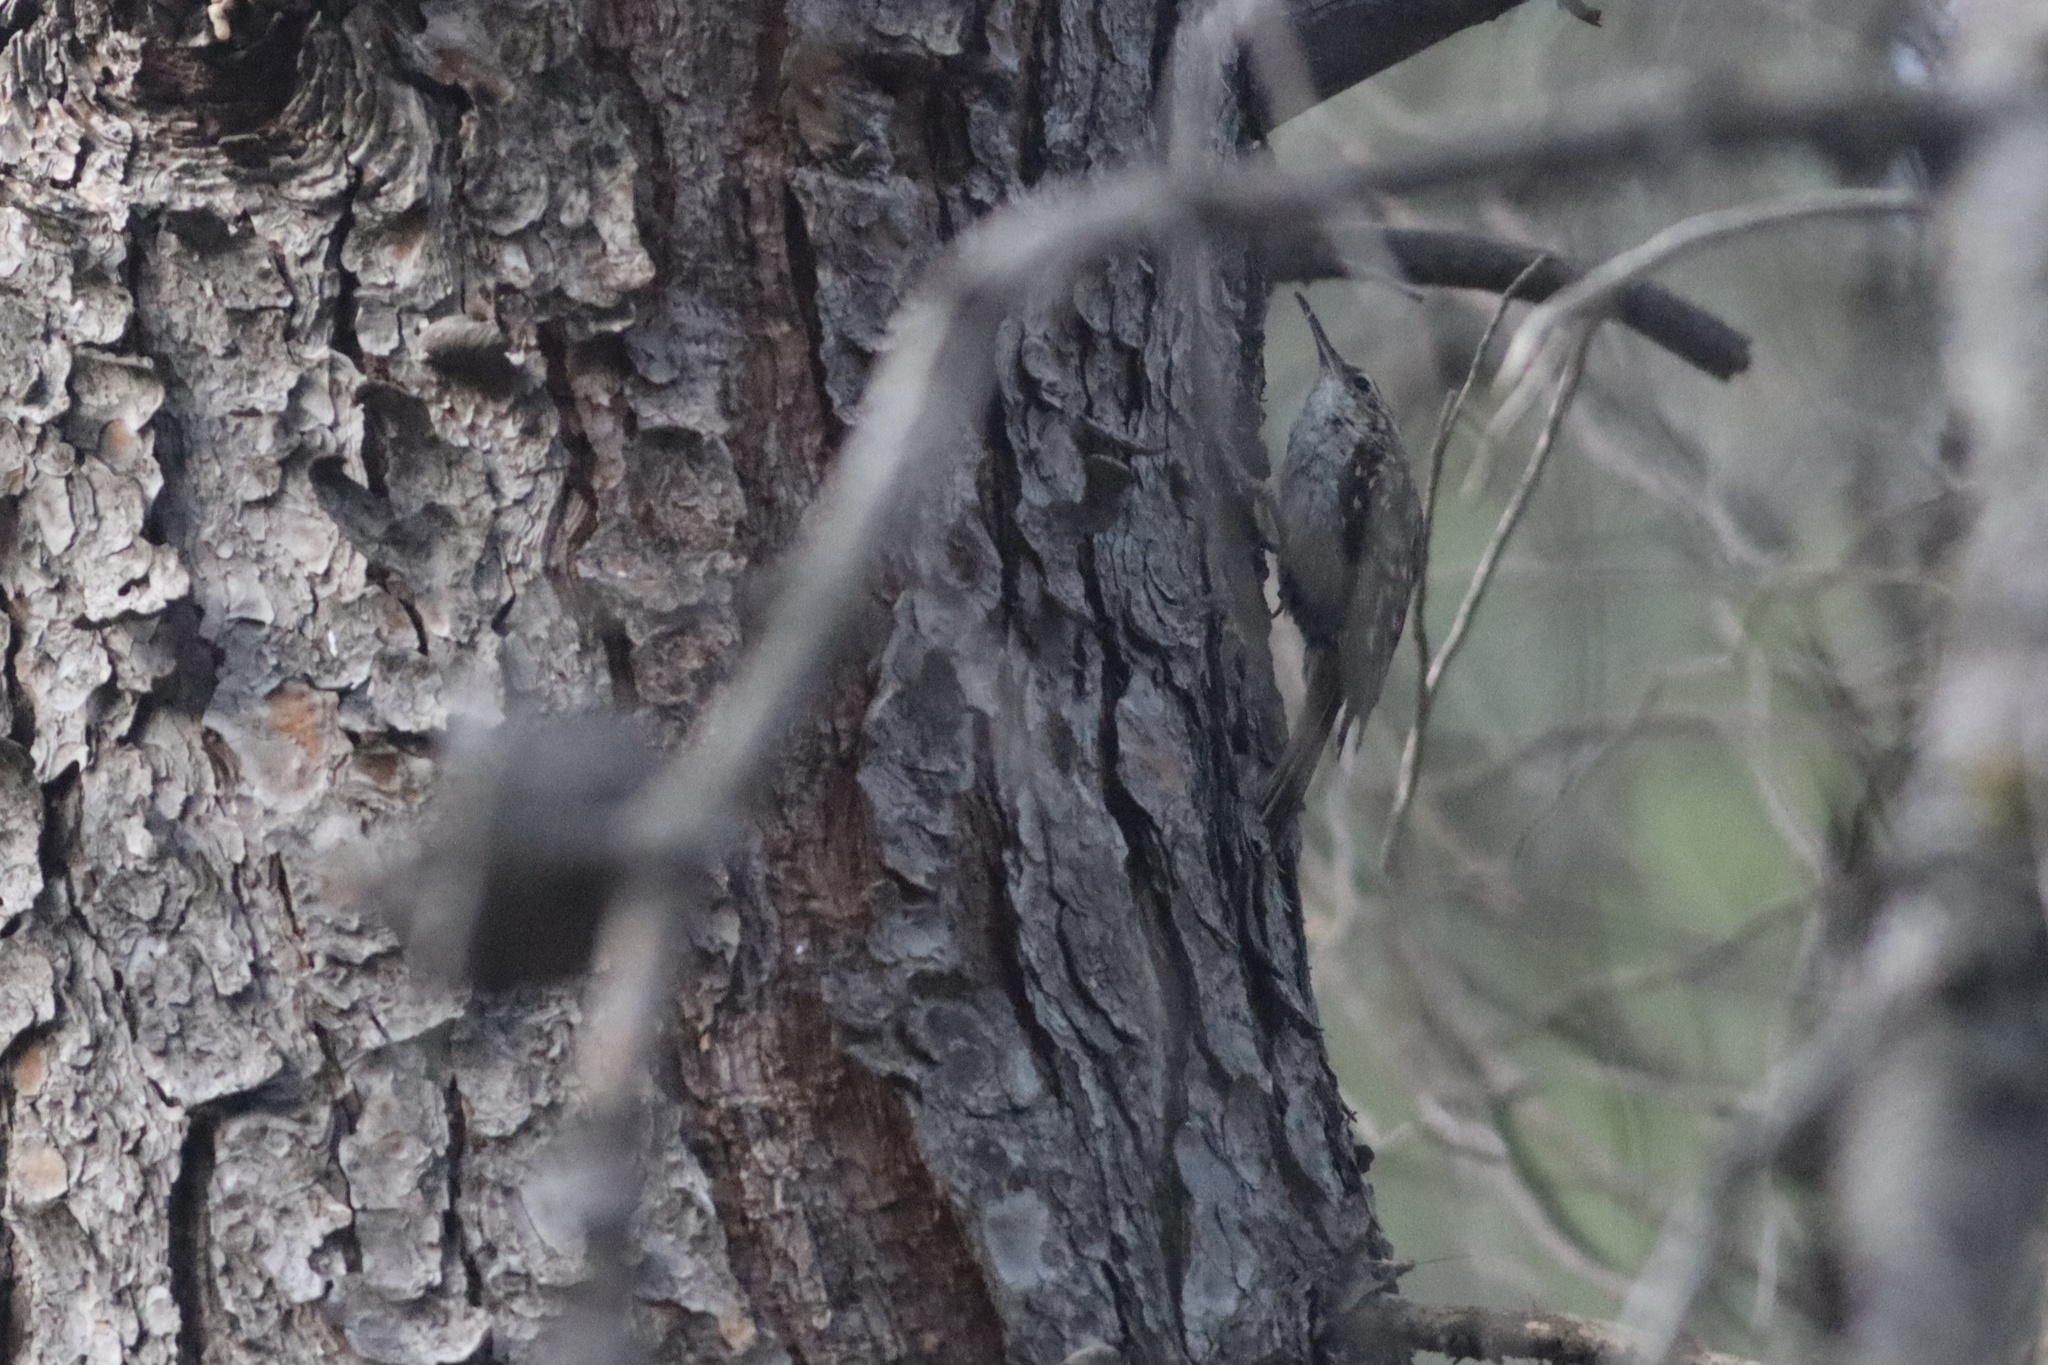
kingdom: Animalia
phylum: Chordata
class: Aves
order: Passeriformes
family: Certhiidae
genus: Certhia
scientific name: Certhia brachydactyla
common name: Short-toed treecreeper
